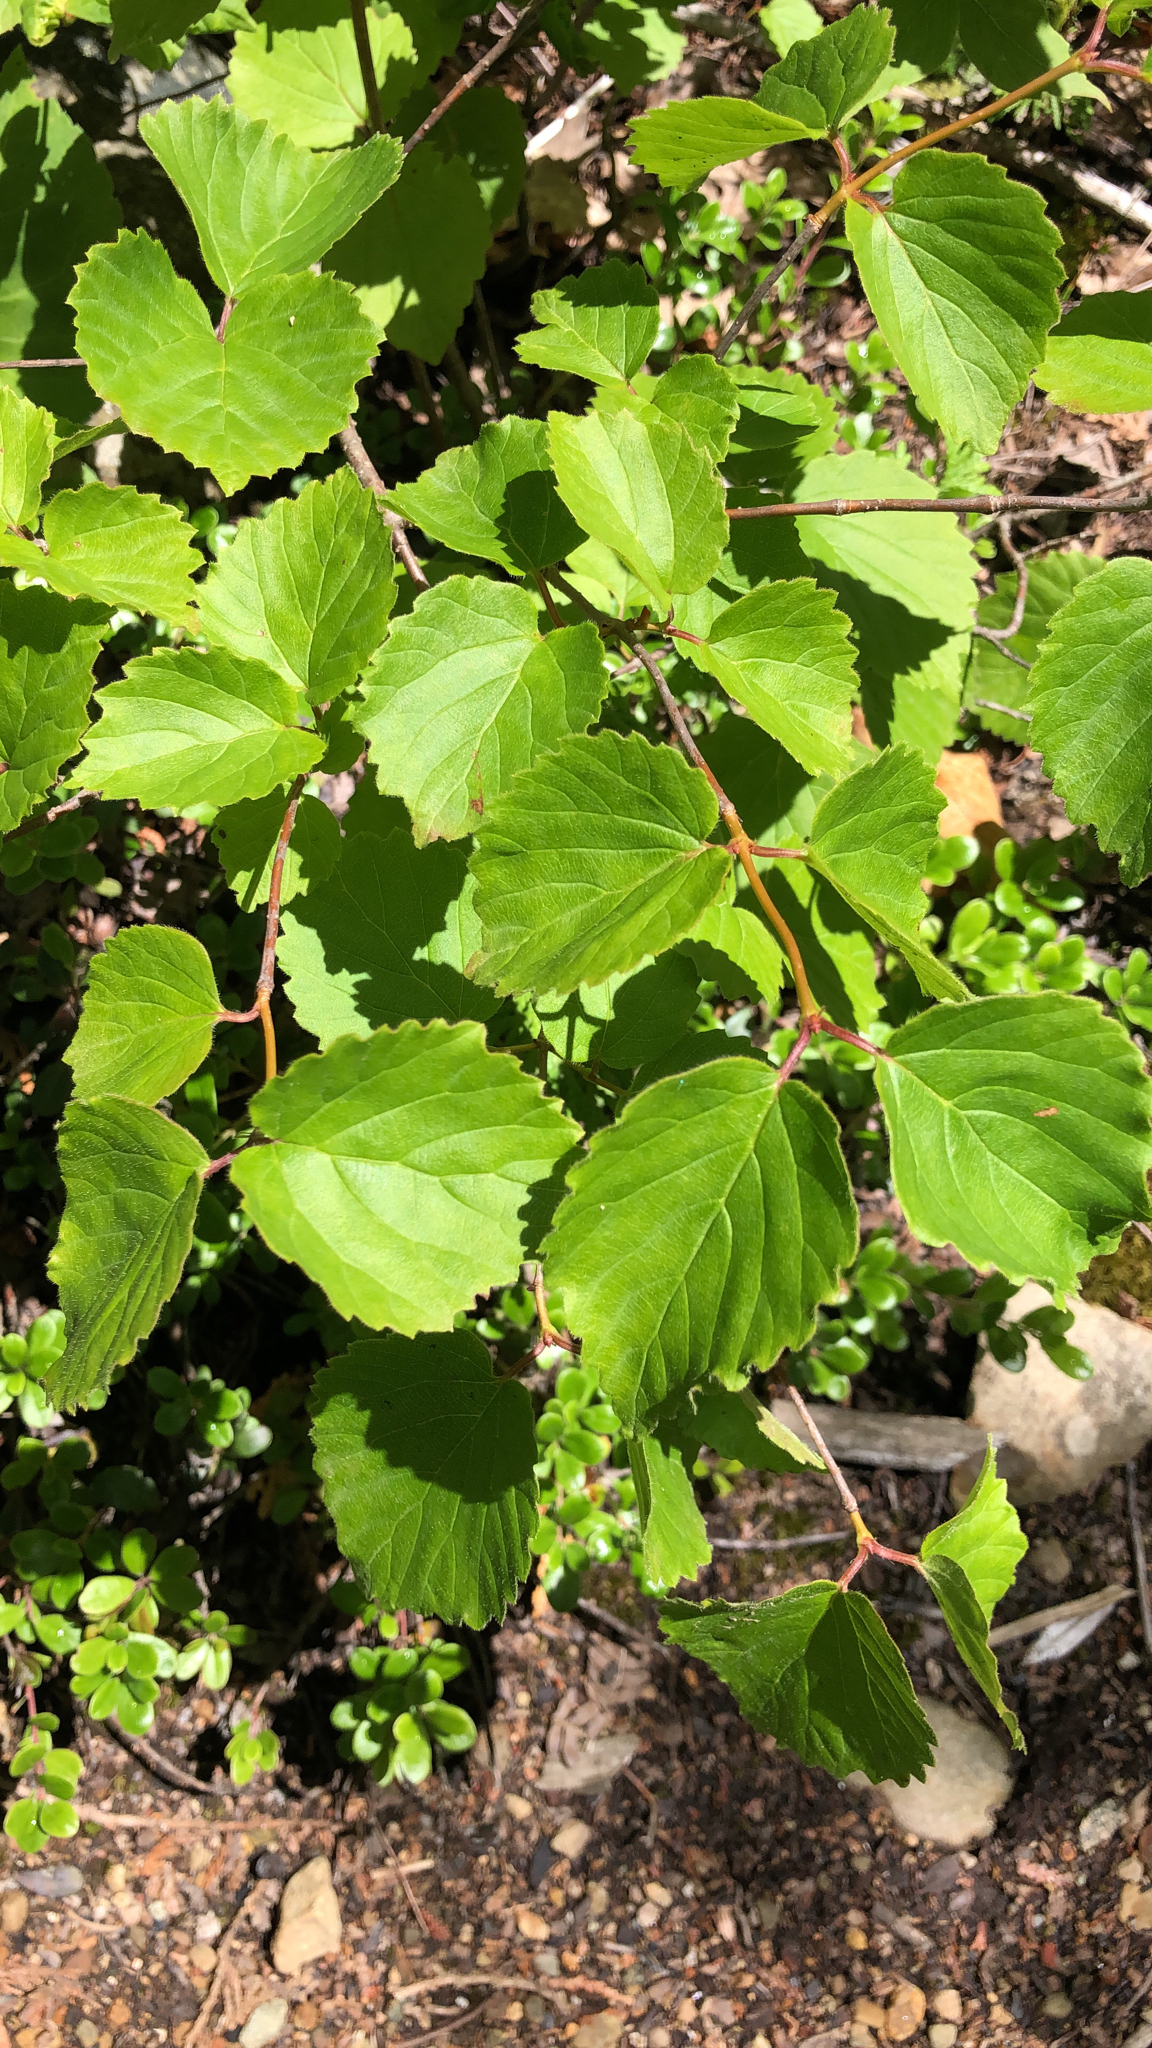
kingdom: Plantae
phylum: Tracheophyta
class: Magnoliopsida
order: Dipsacales
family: Viburnaceae
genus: Viburnum
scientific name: Viburnum rafinesqueanum
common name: Downy arrow-wood
